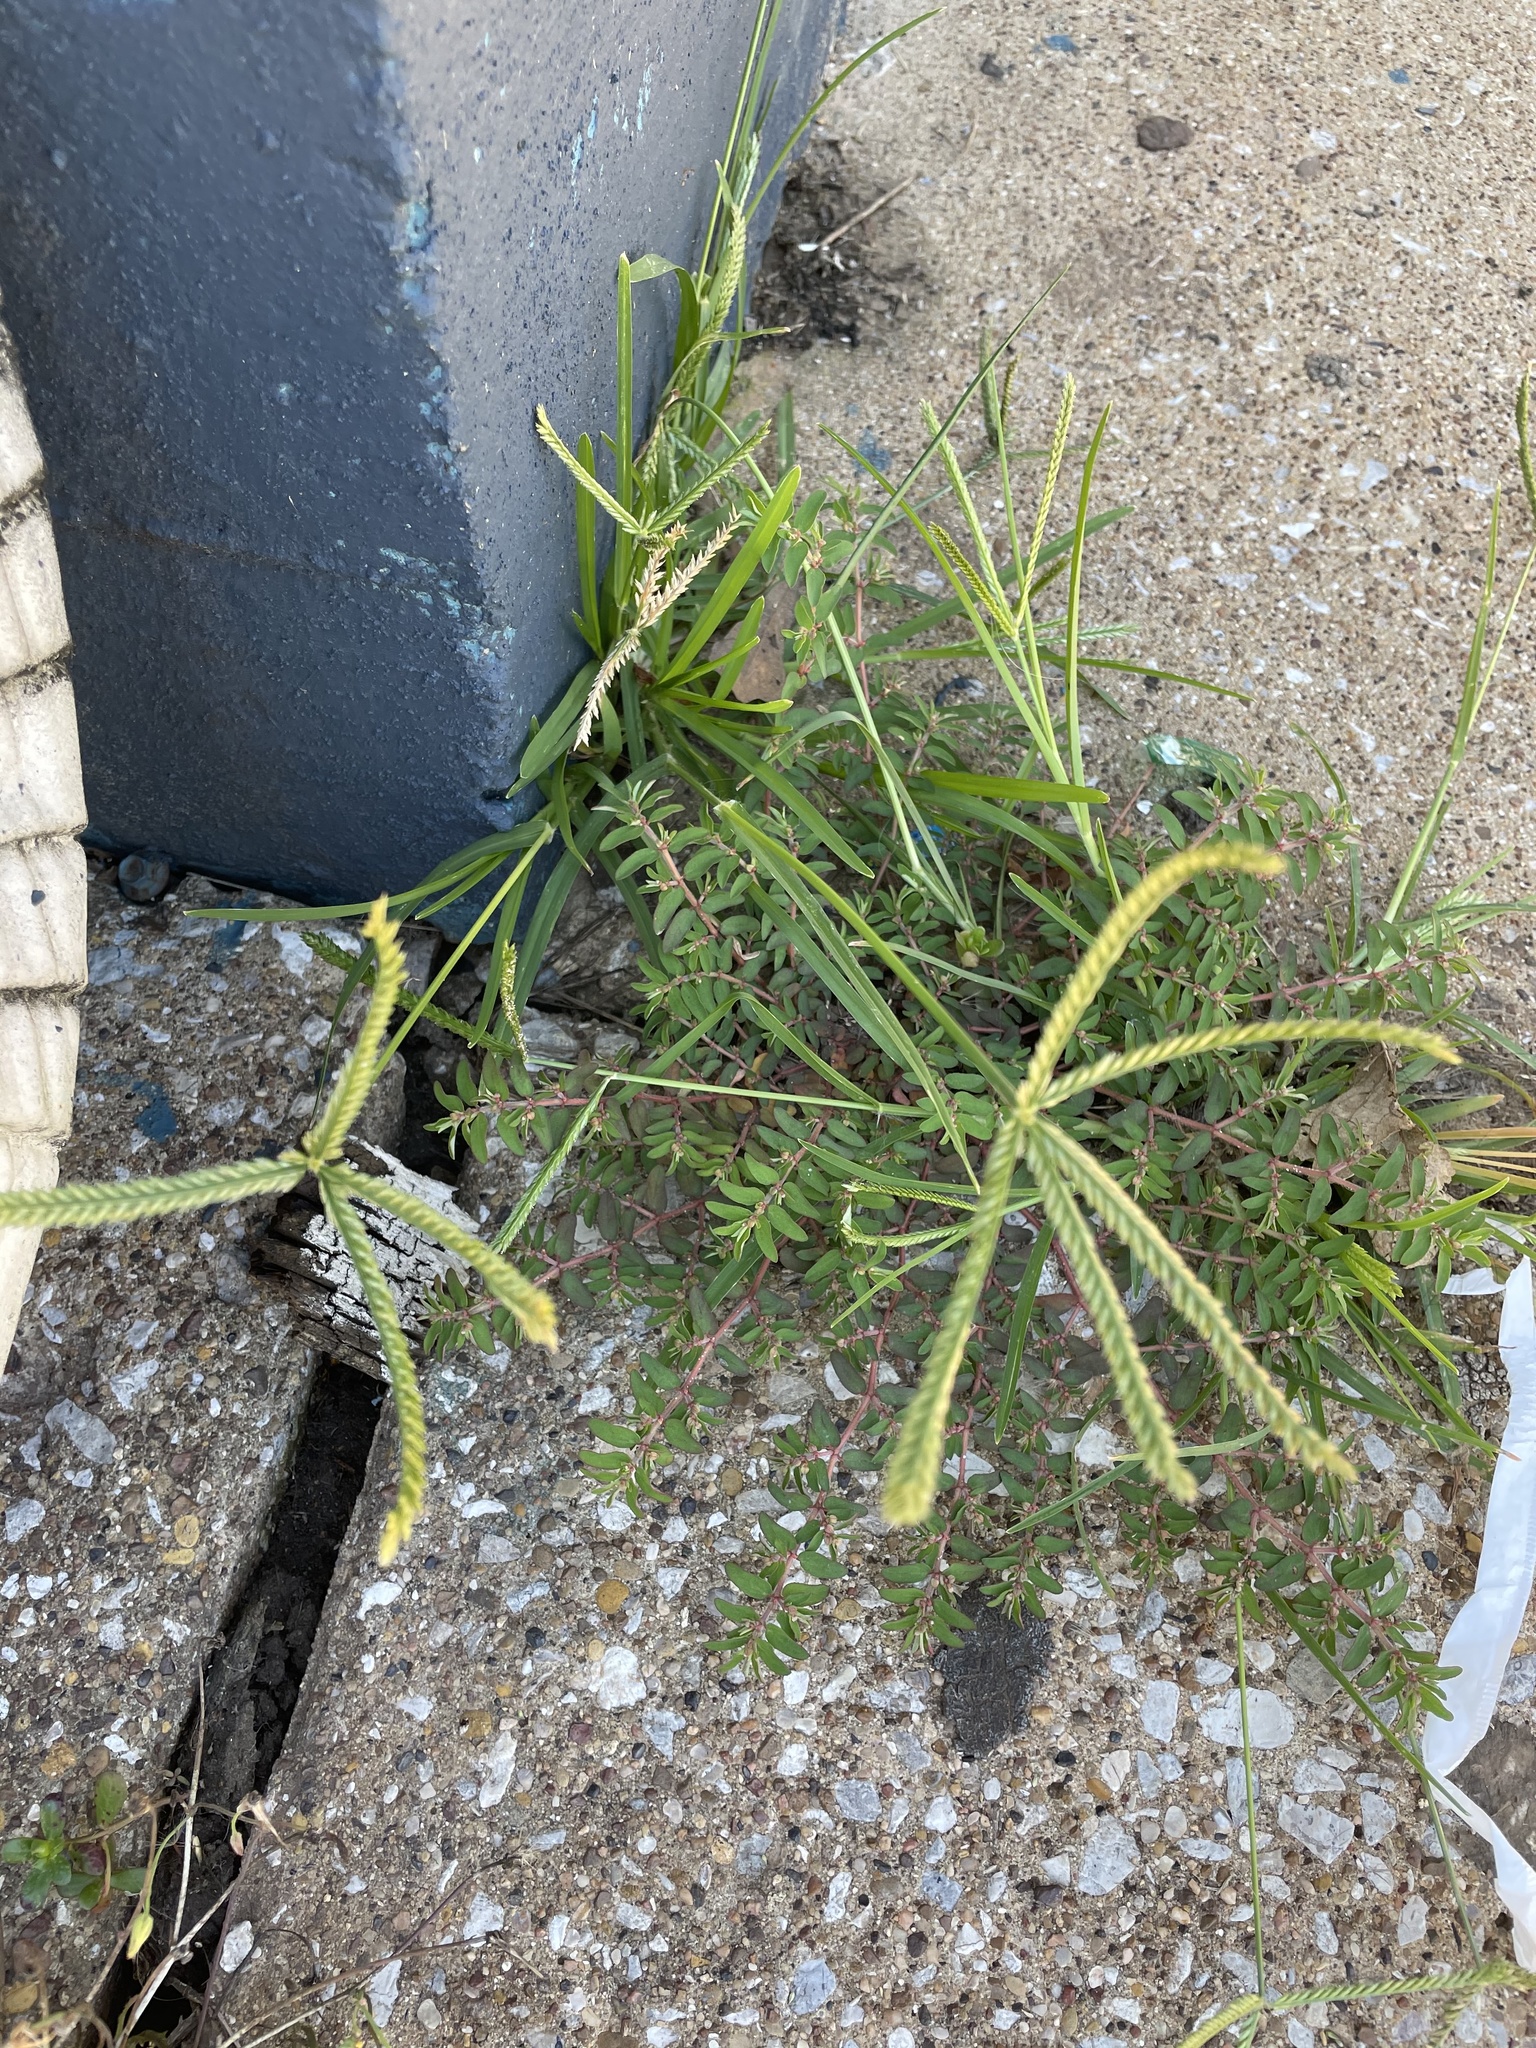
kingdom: Plantae
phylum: Tracheophyta
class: Liliopsida
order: Poales
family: Poaceae
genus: Eleusine
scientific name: Eleusine indica
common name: Yard-grass
